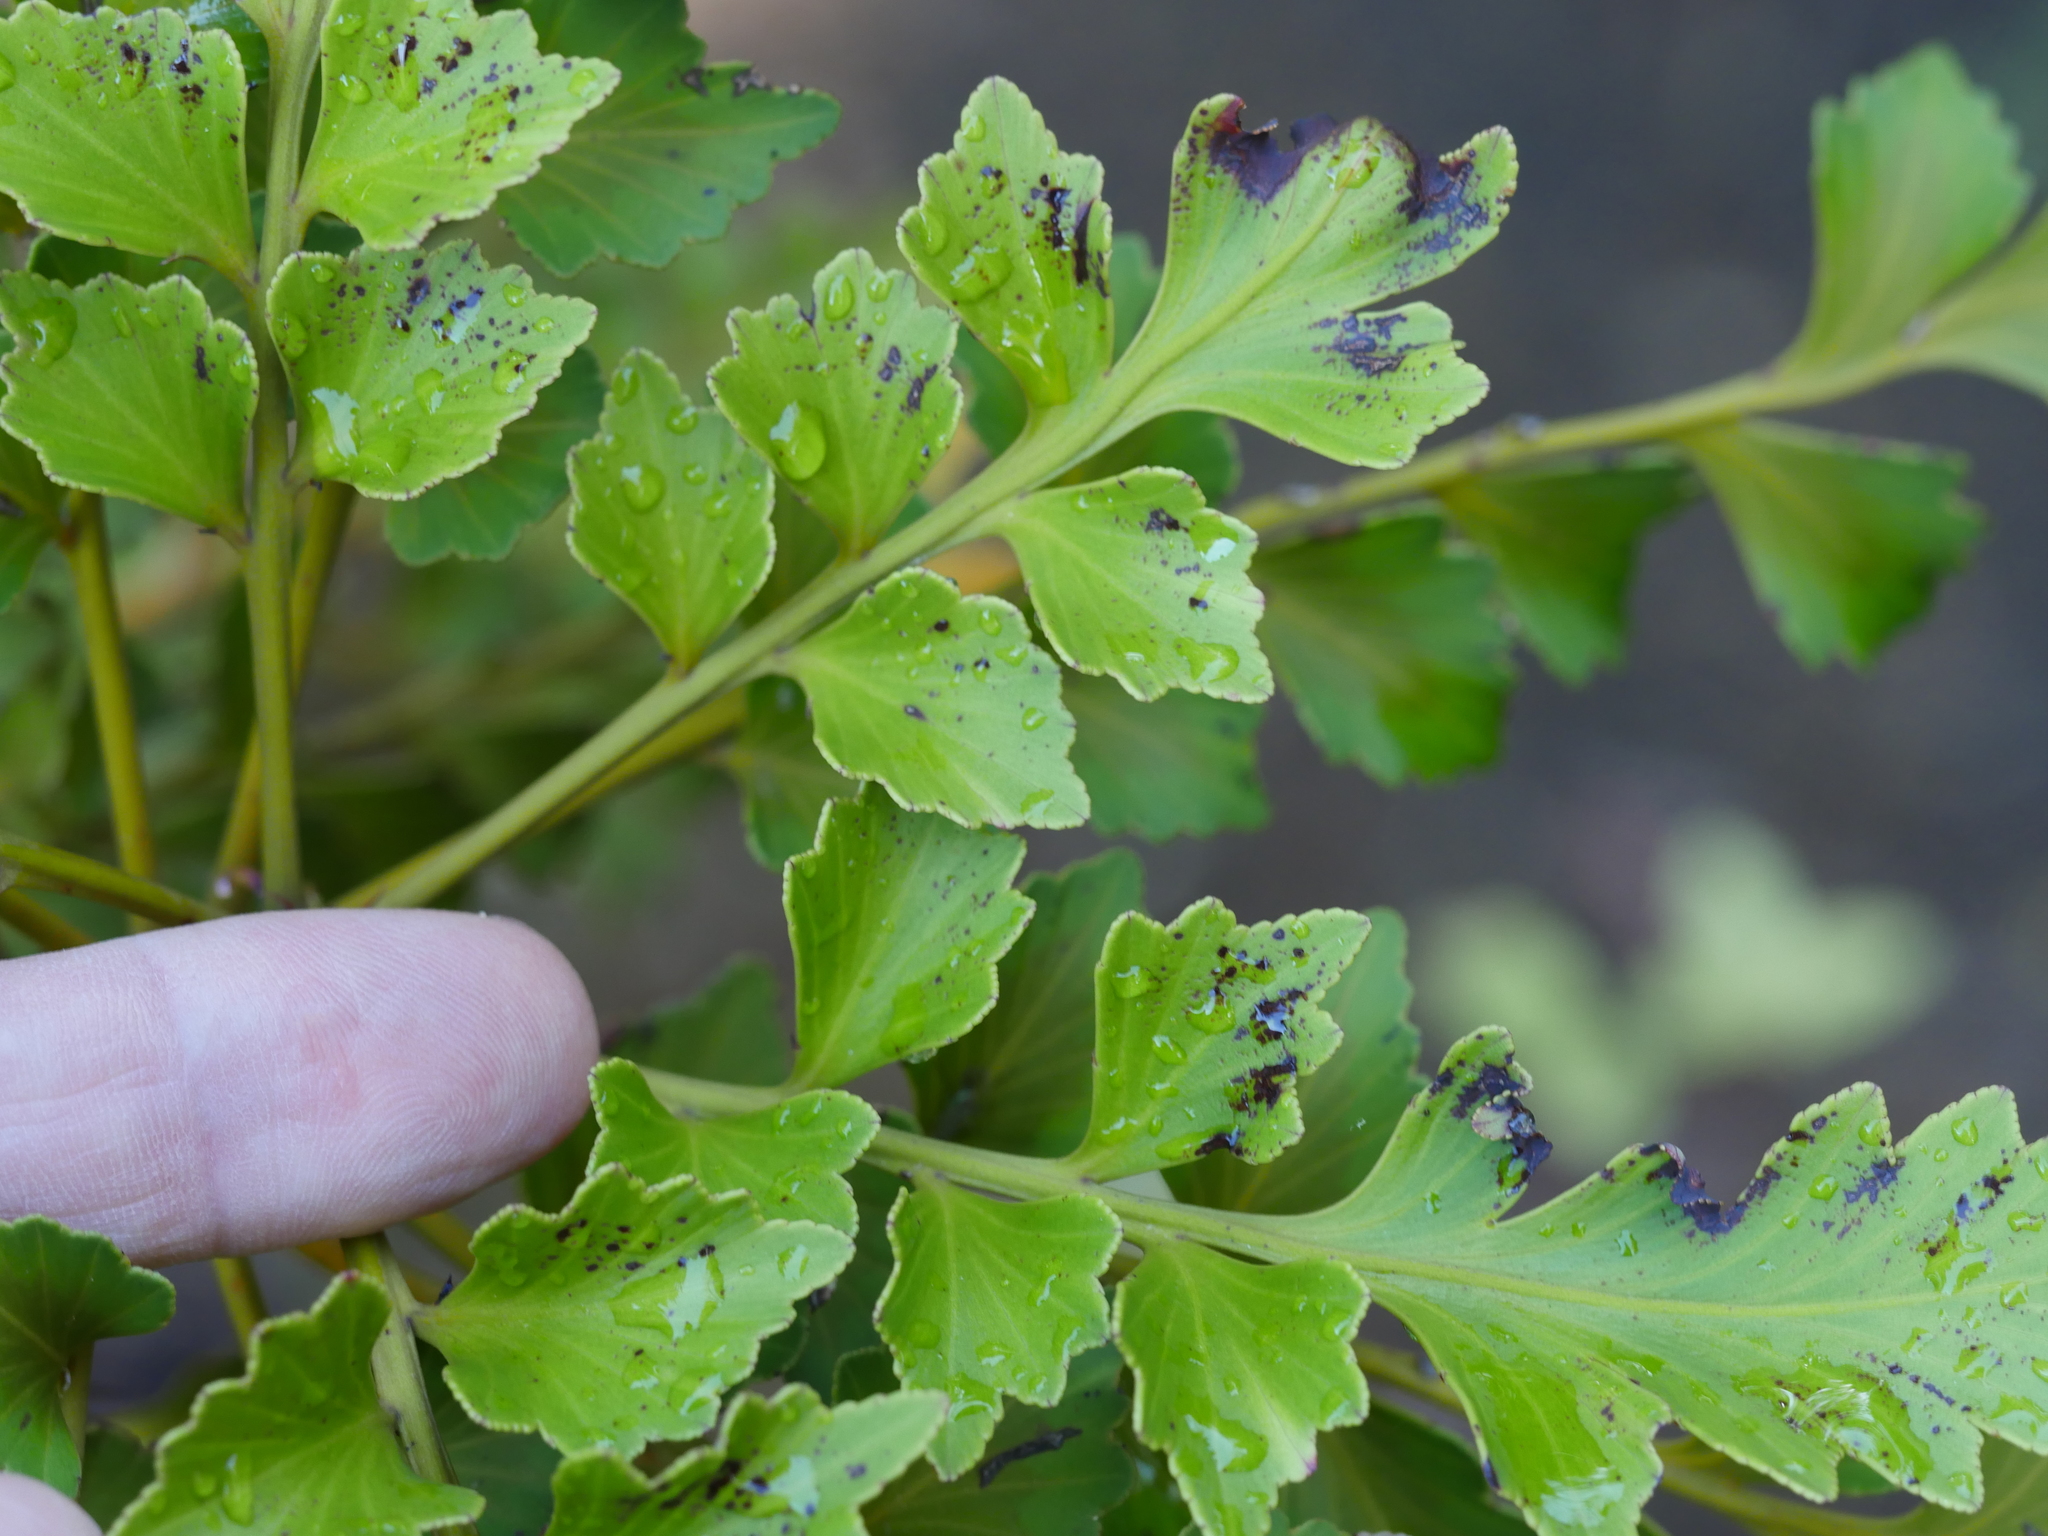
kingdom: Plantae
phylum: Tracheophyta
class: Pinopsida
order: Pinales
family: Phyllocladaceae
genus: Phyllocladus
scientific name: Phyllocladus toatoa
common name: Celery-top pine
